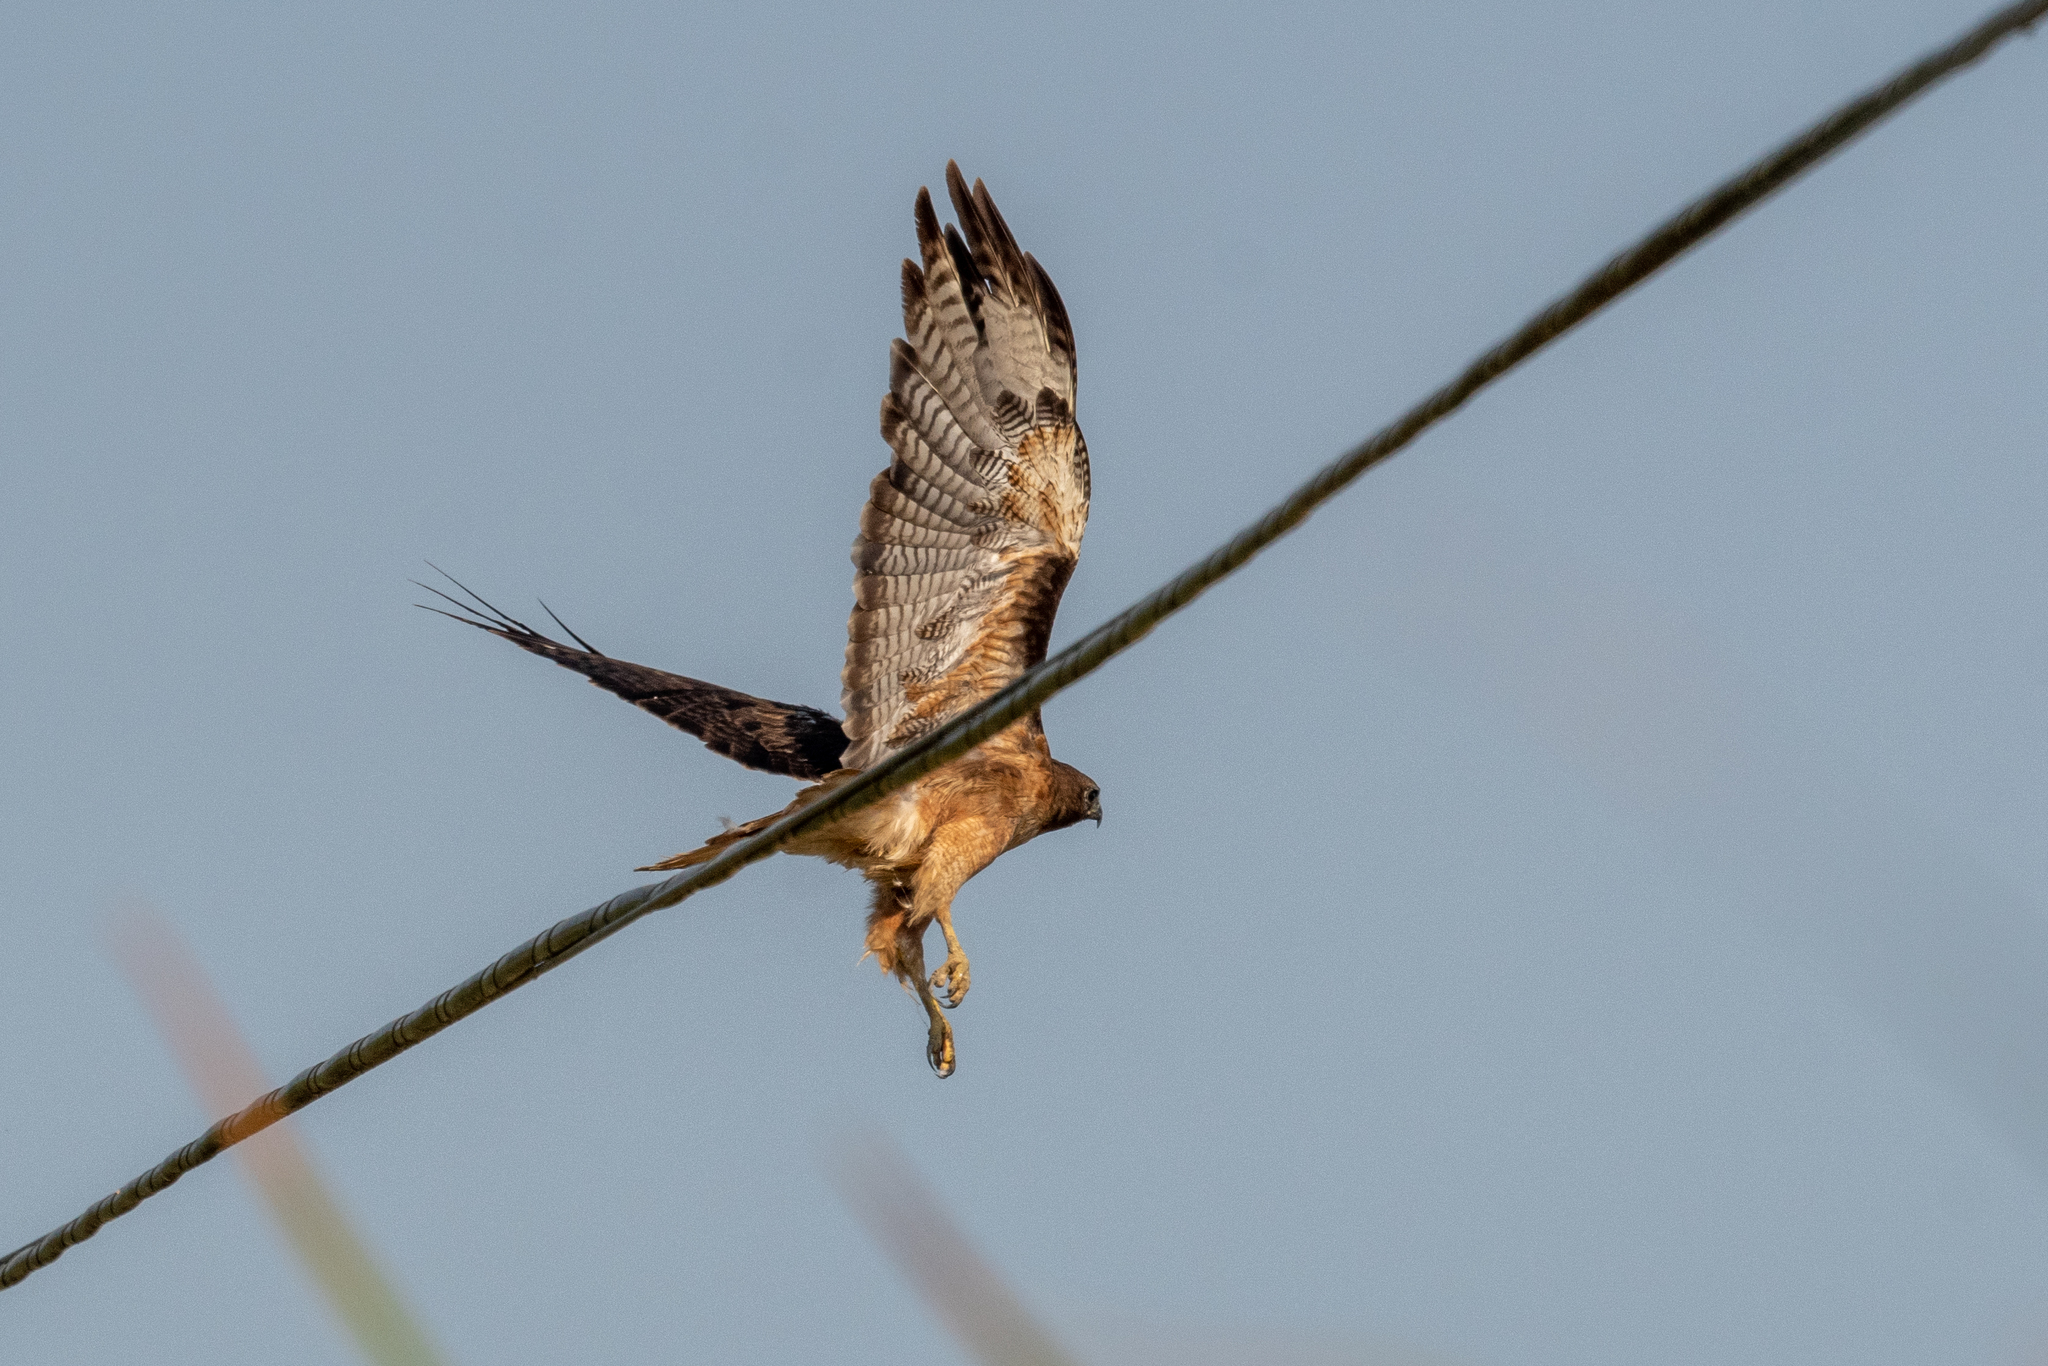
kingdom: Animalia
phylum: Chordata
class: Aves
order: Accipitriformes
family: Accipitridae
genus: Buteo
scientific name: Buteo jamaicensis
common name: Red-tailed hawk
